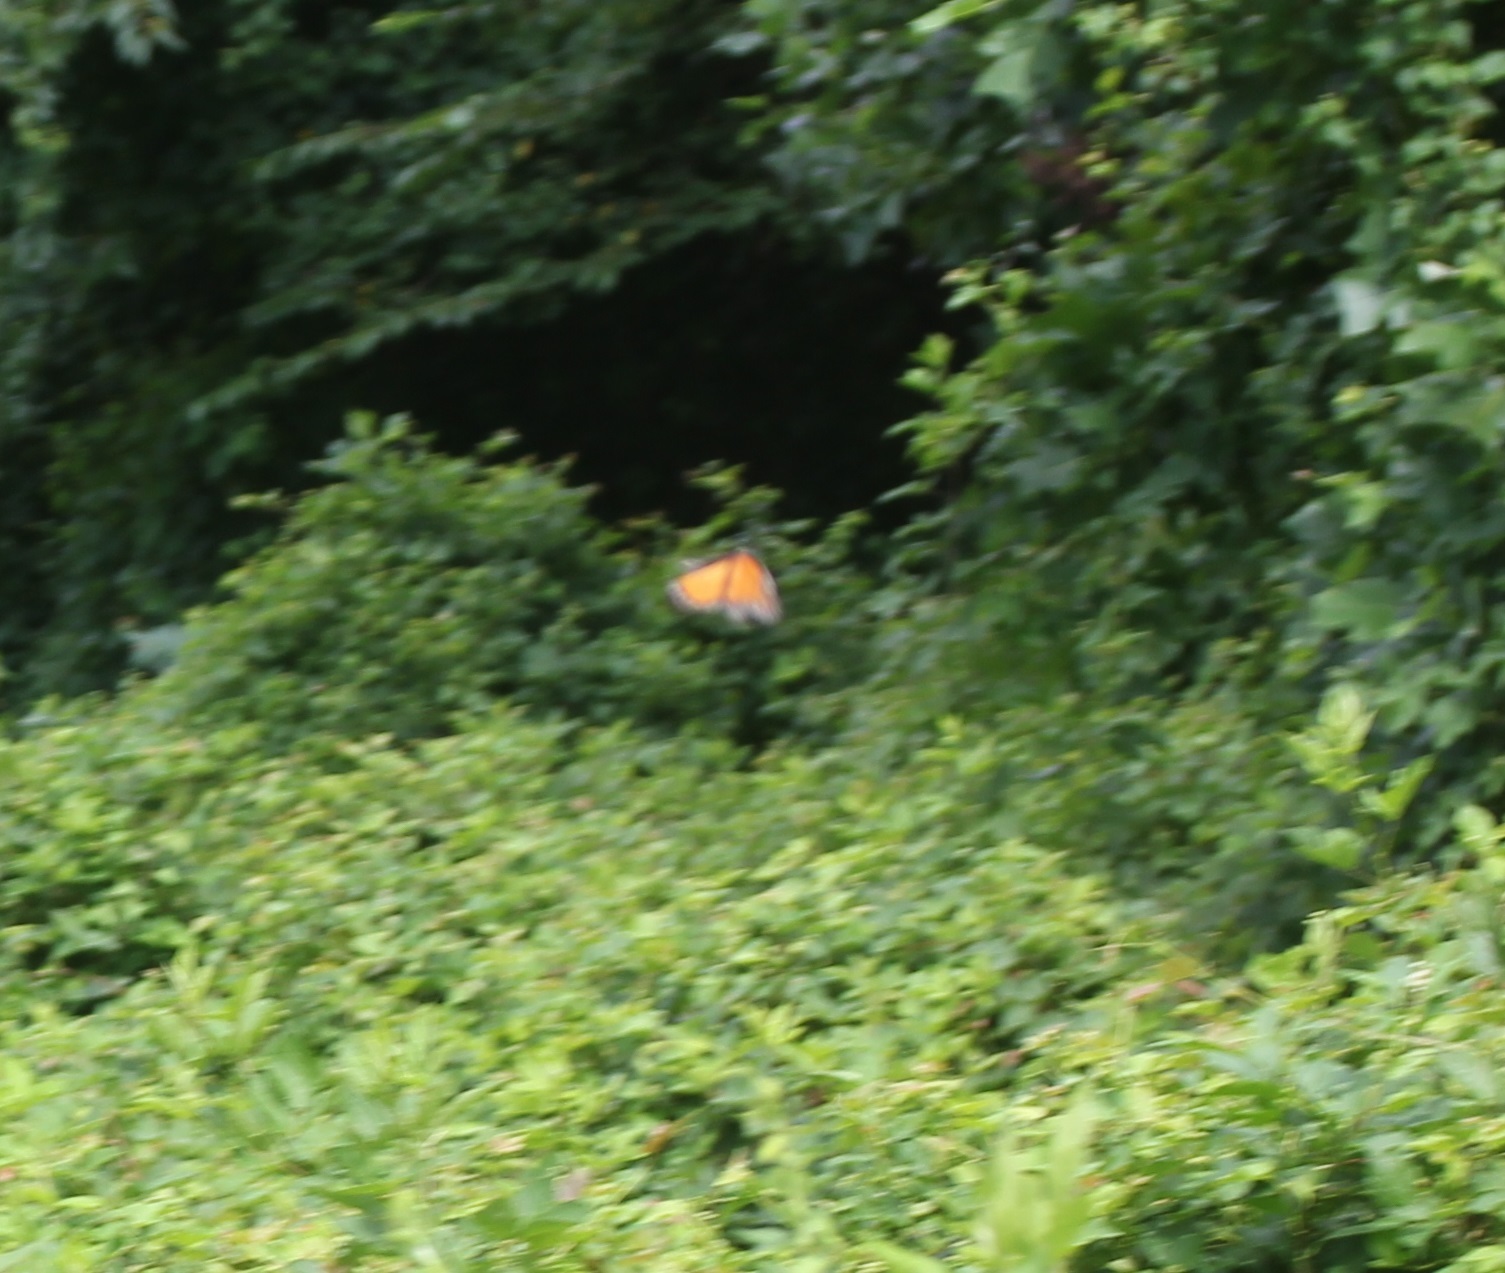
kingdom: Animalia
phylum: Arthropoda
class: Insecta
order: Lepidoptera
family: Nymphalidae
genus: Danaus
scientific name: Danaus plexippus
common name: Monarch
